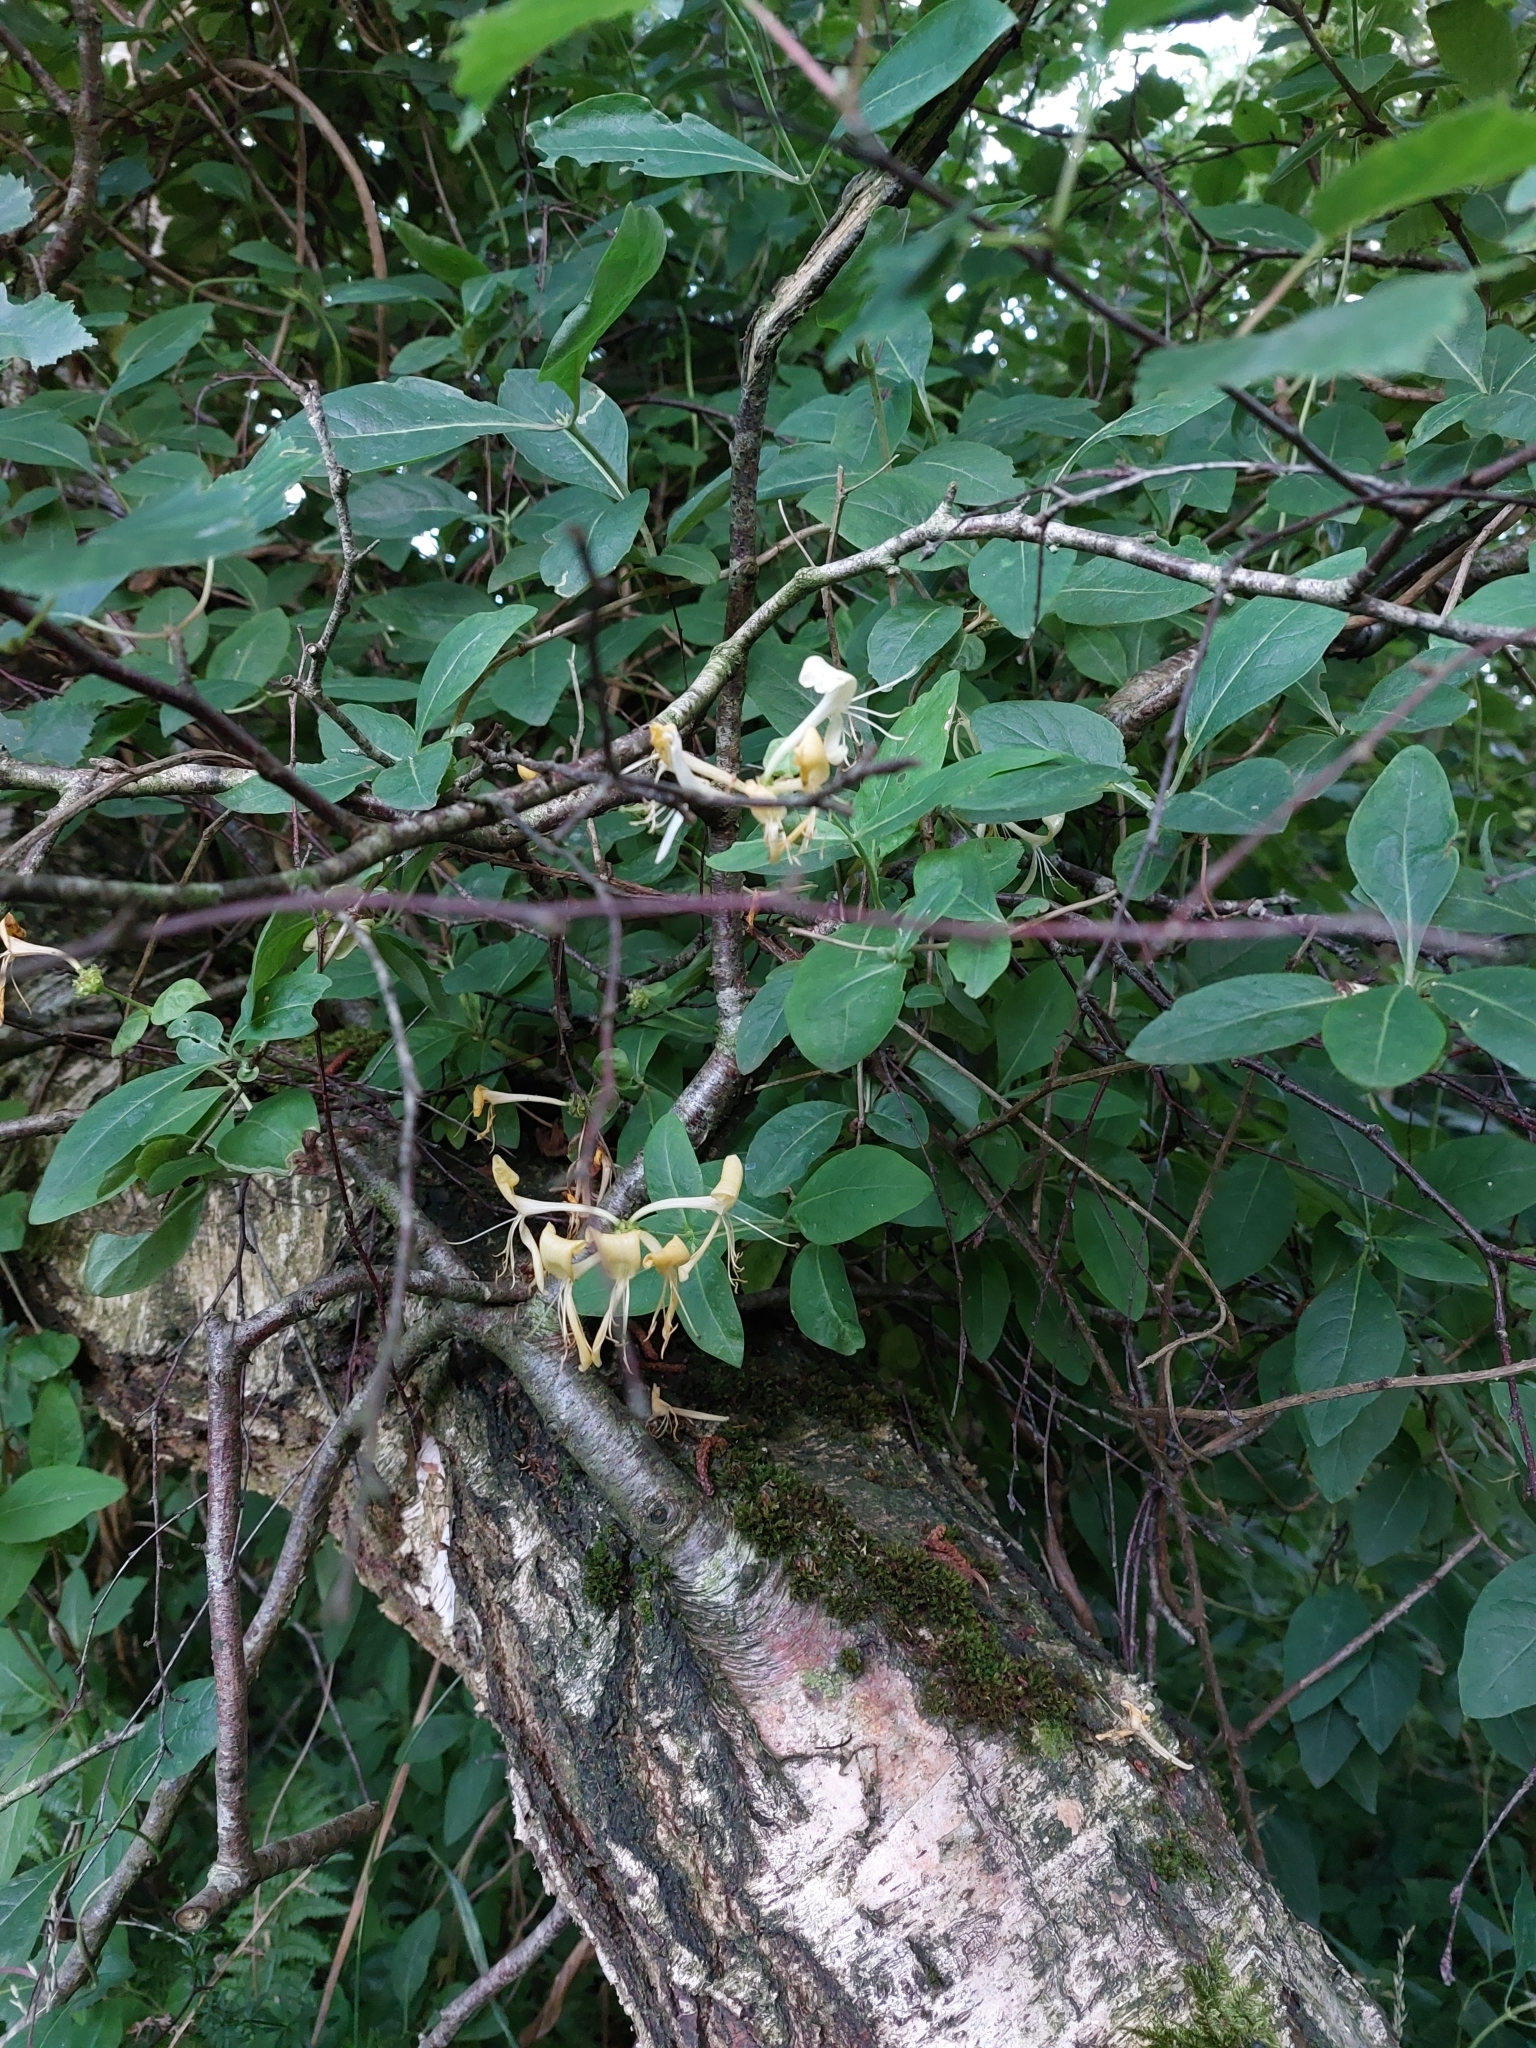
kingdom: Plantae
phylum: Tracheophyta
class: Magnoliopsida
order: Dipsacales
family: Caprifoliaceae
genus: Lonicera
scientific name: Lonicera periclymenum
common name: European honeysuckle
